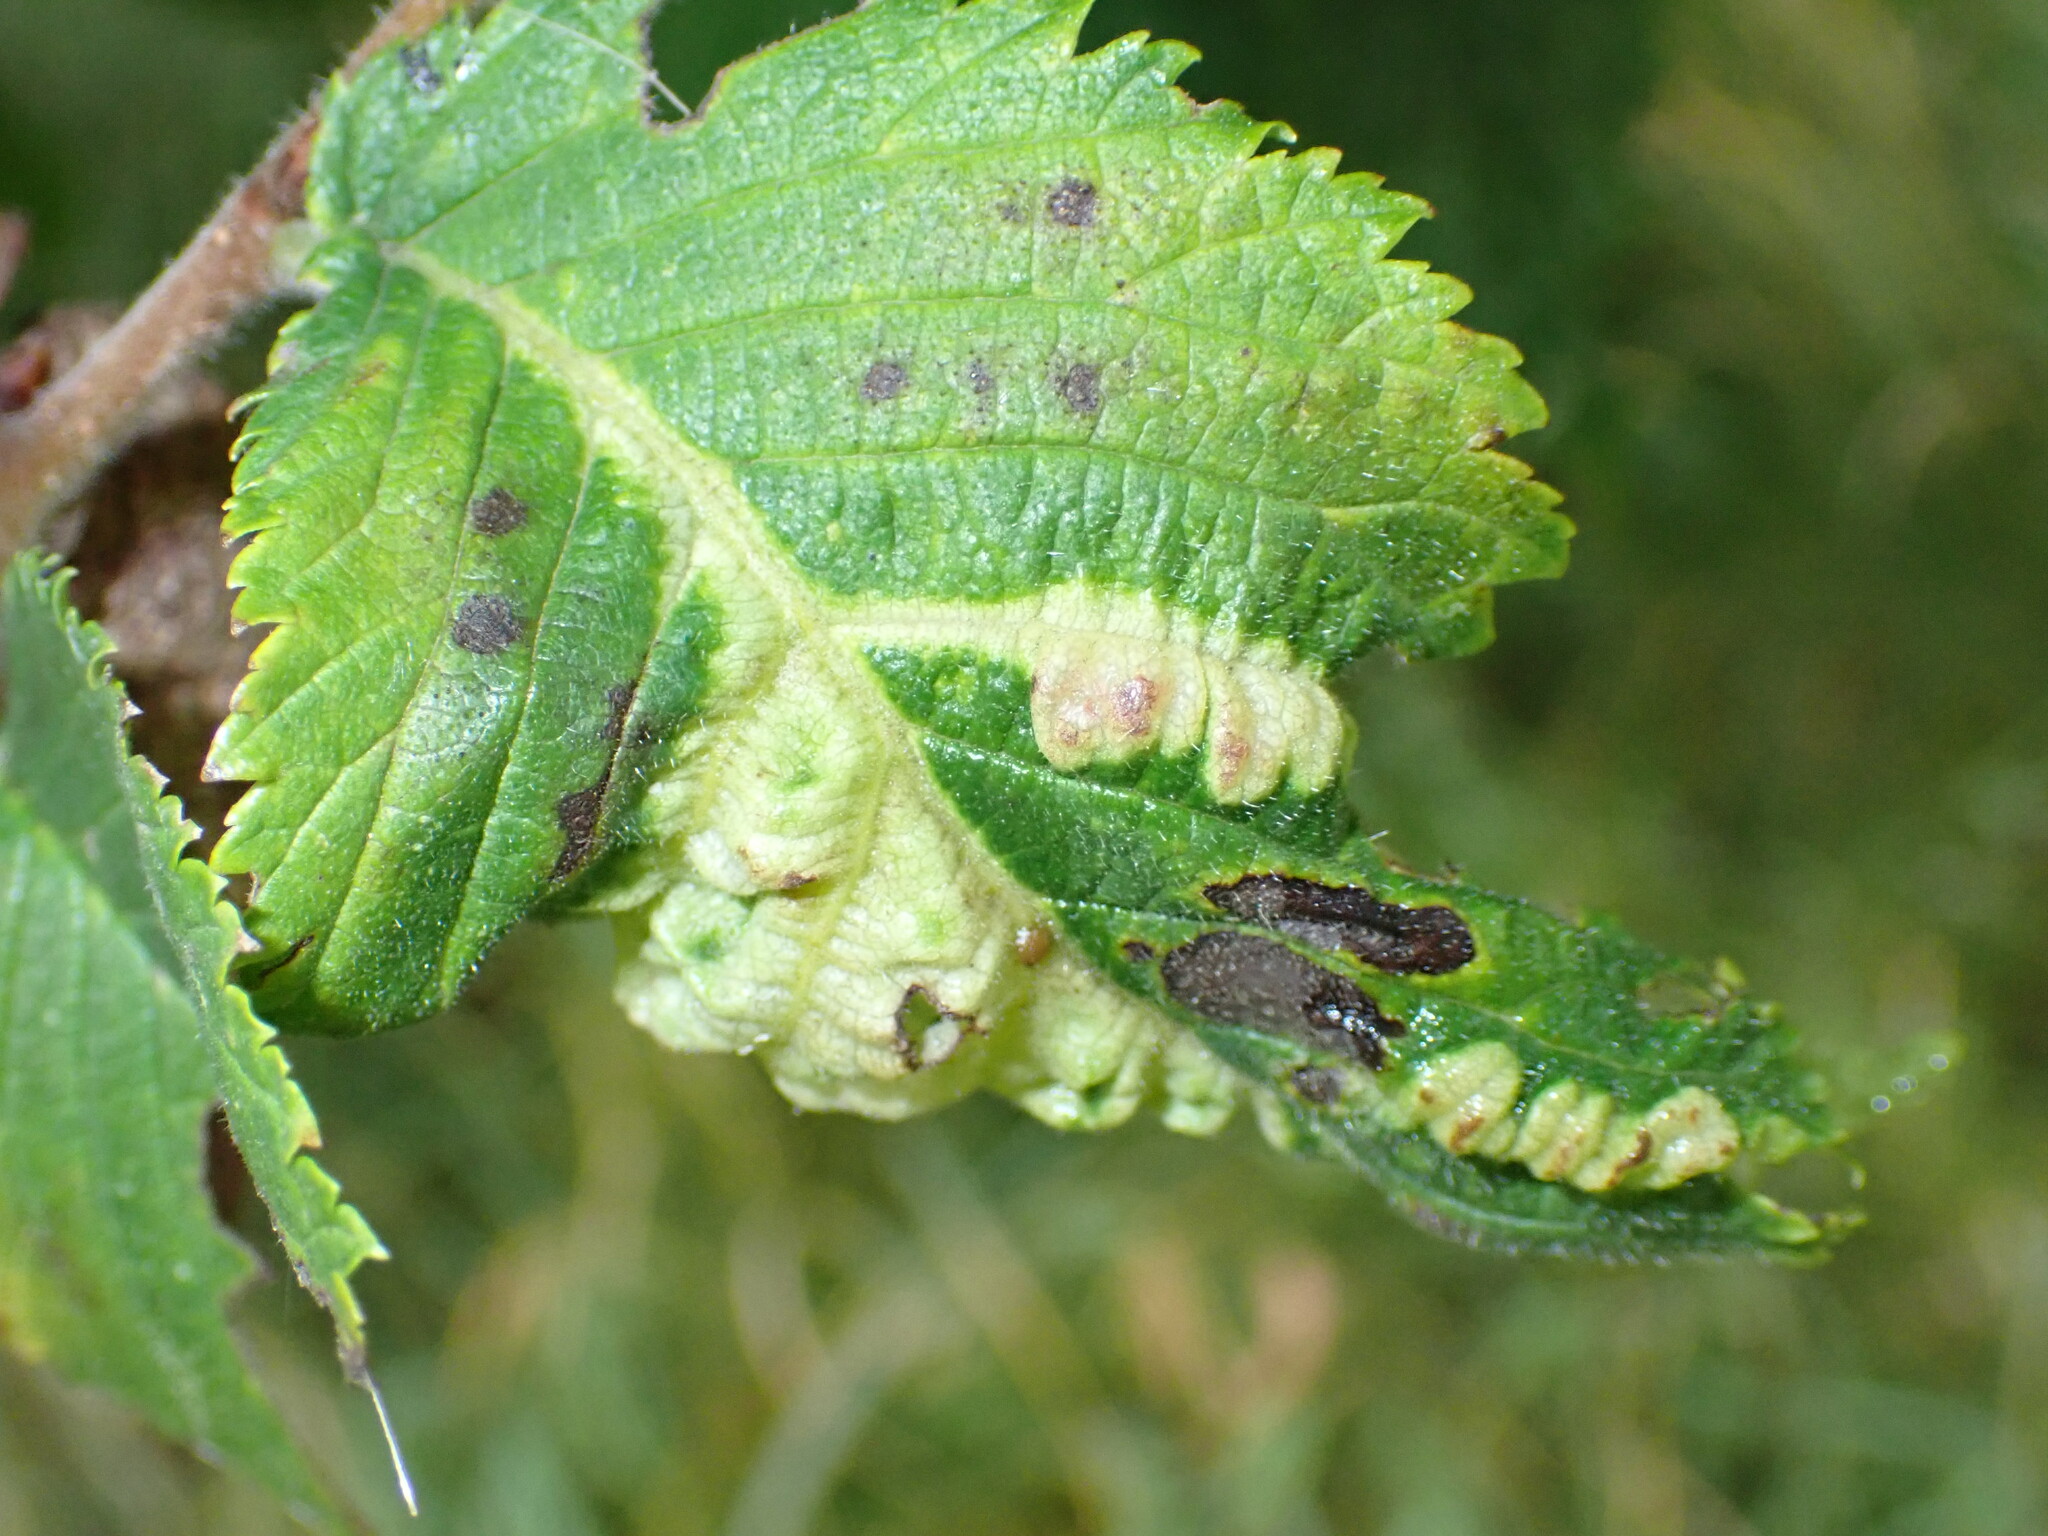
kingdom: Animalia
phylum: Arthropoda
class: Insecta
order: Hemiptera
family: Aphididae
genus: Tetraneura
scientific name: Tetraneura ulmi
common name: Aphid
